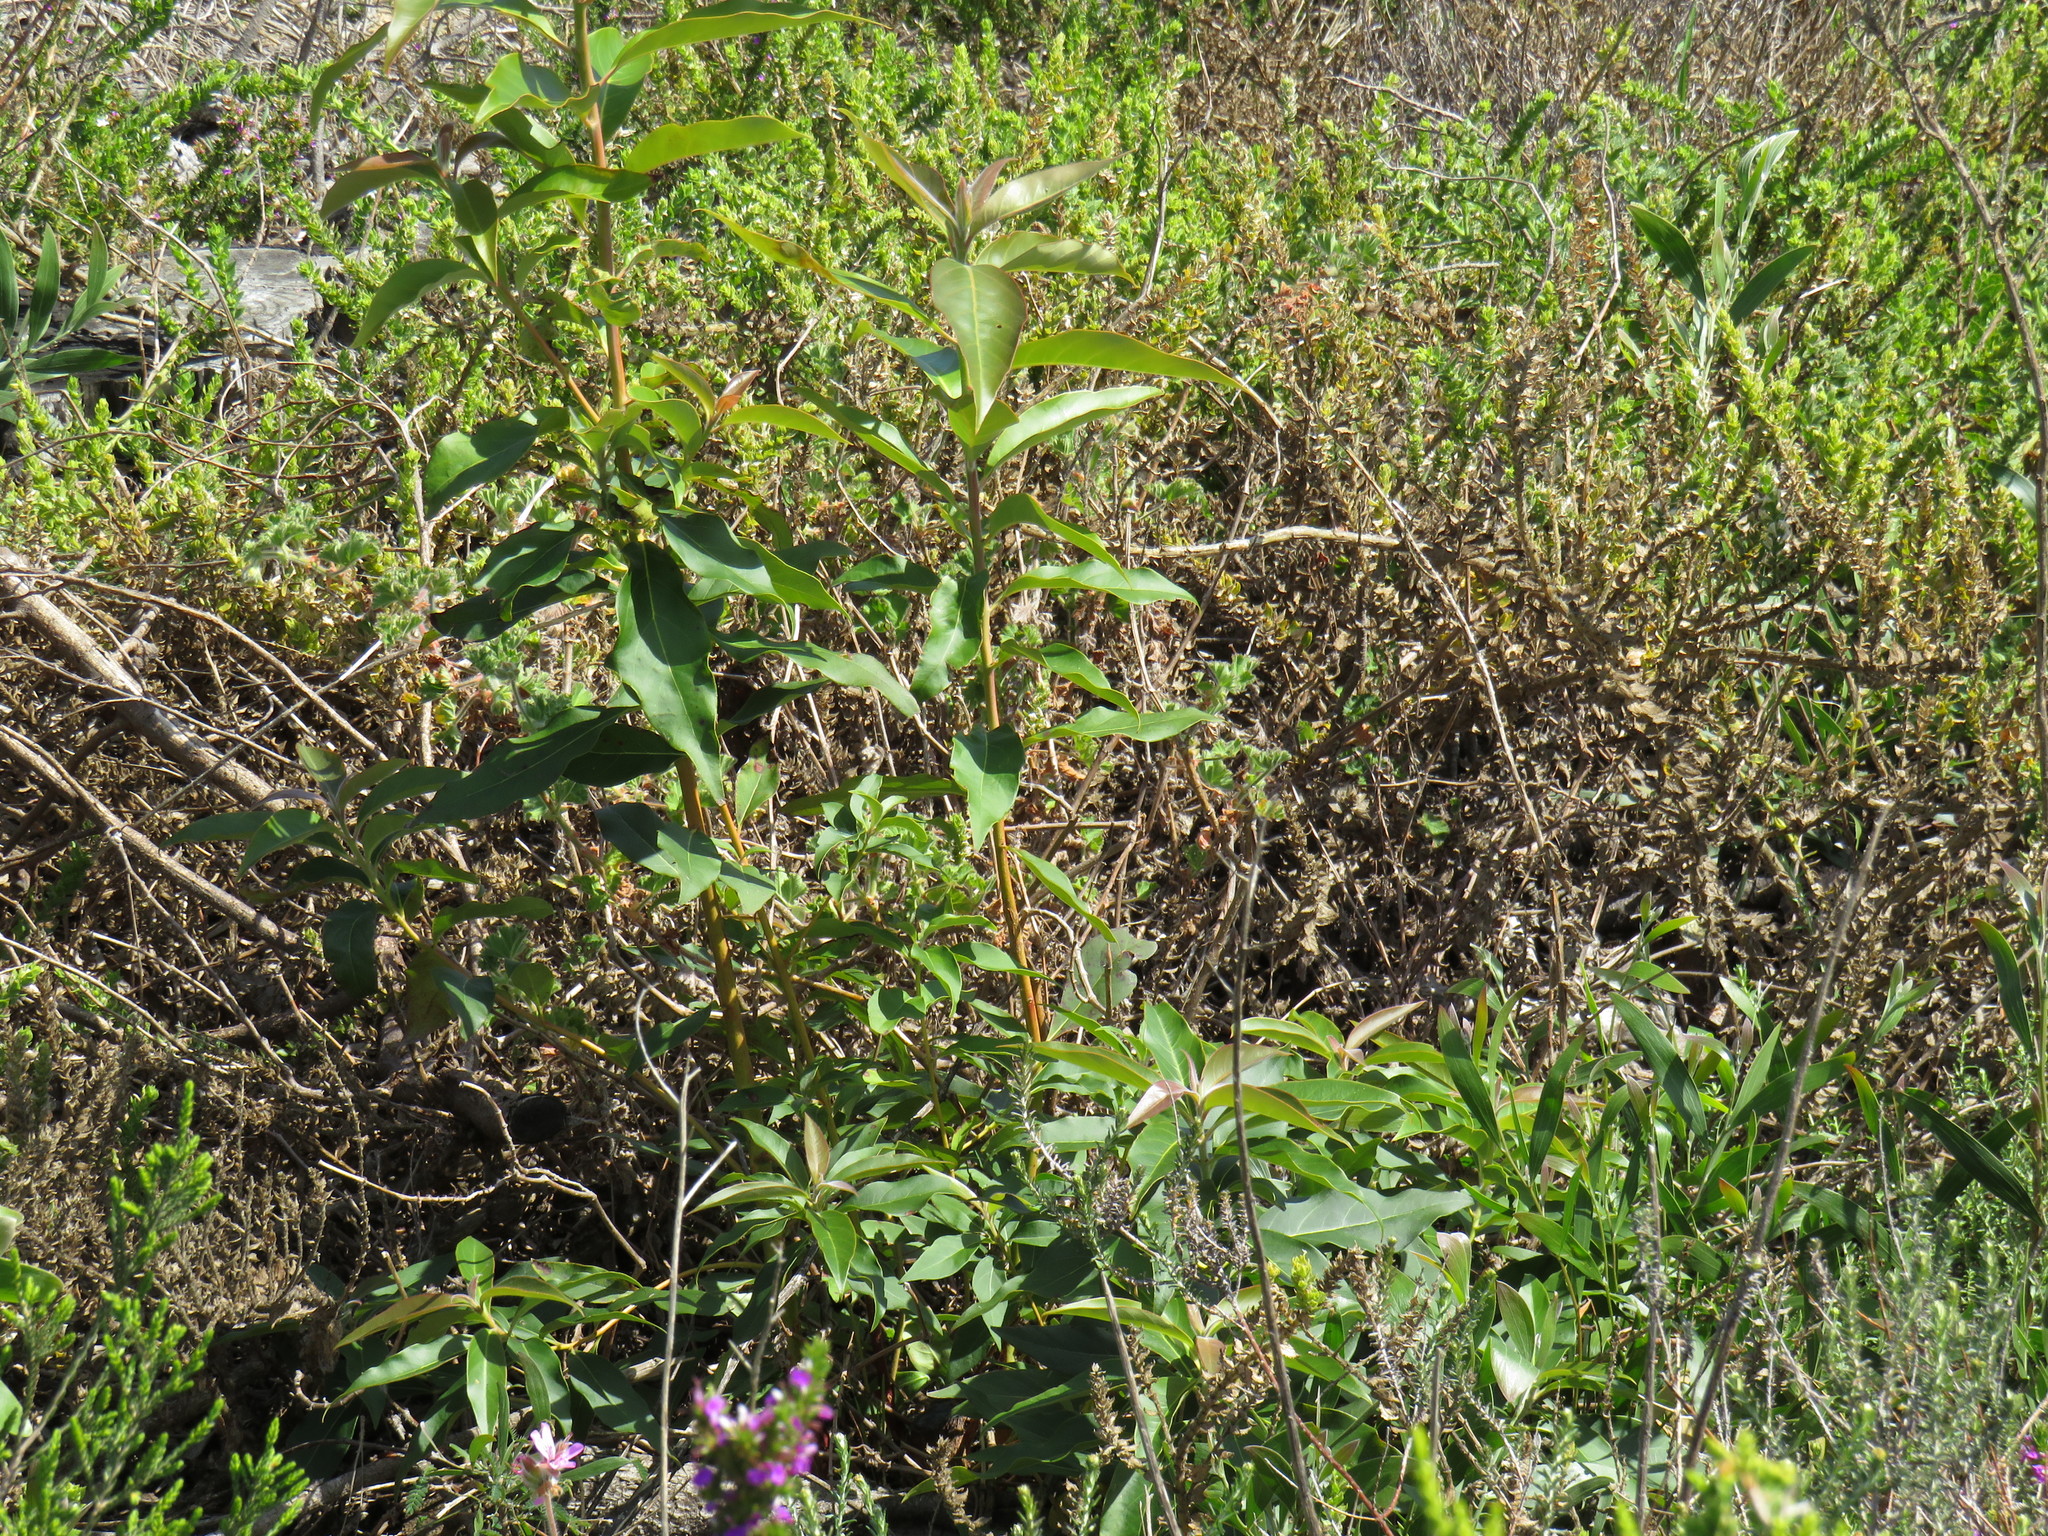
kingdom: Plantae
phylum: Tracheophyta
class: Magnoliopsida
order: Myrtales
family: Myrtaceae
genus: Lophostemon
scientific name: Lophostemon confertus
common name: Brisbane box
